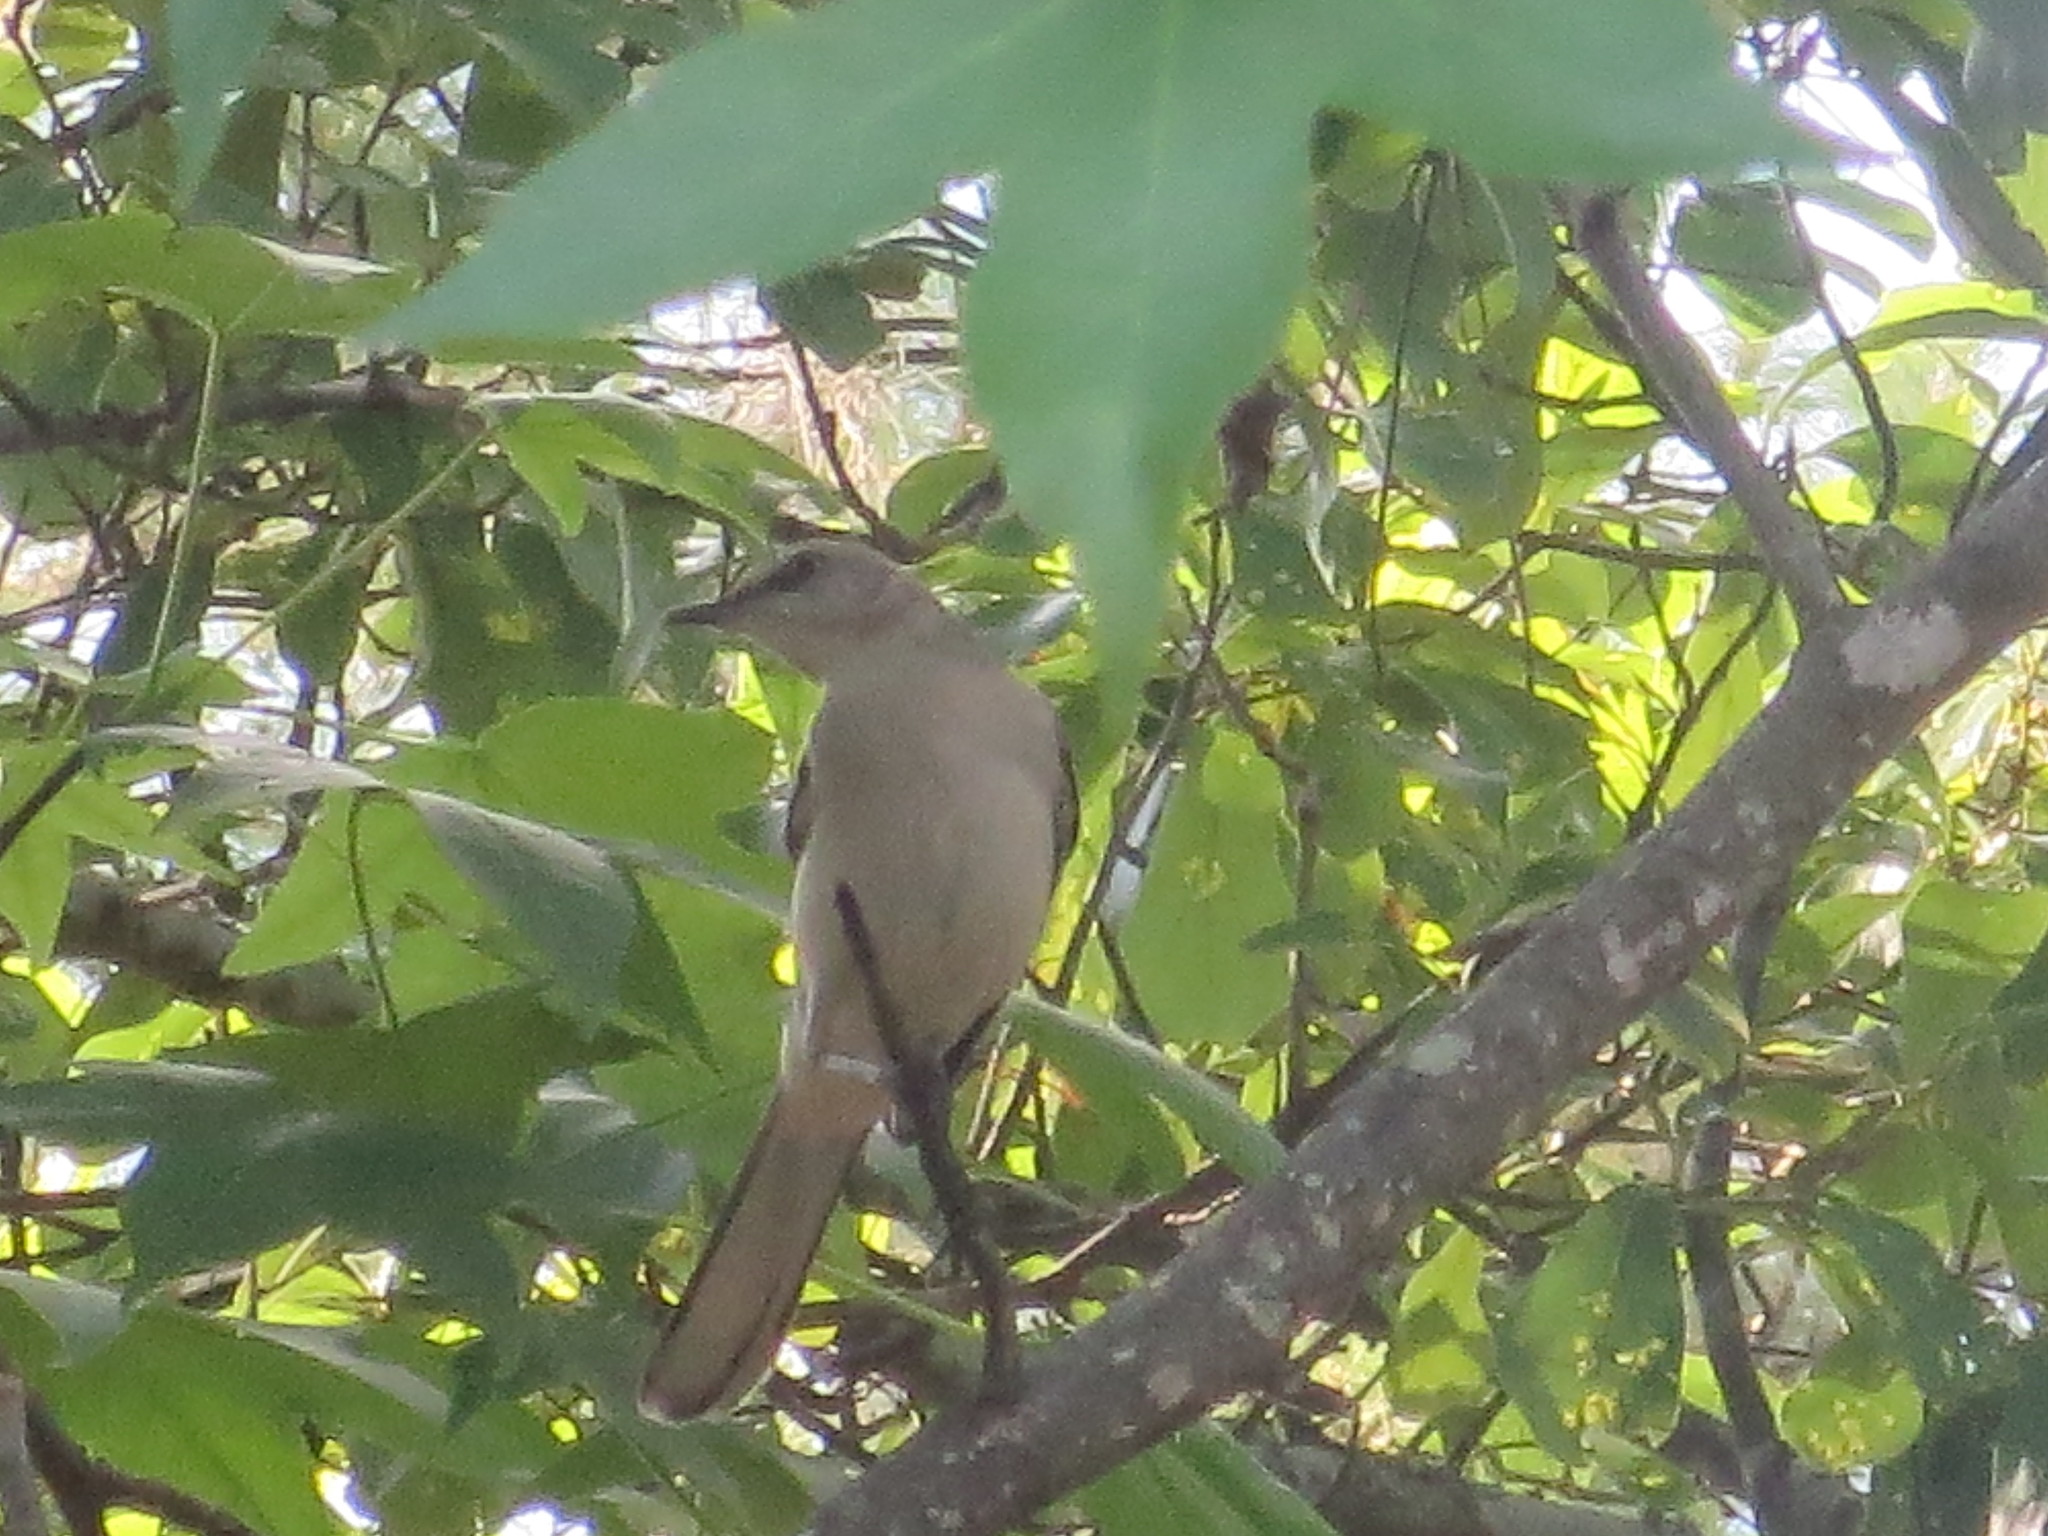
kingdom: Animalia
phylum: Chordata
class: Aves
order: Passeriformes
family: Mimidae
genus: Mimus
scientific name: Mimus polyglottos
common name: Northern mockingbird
